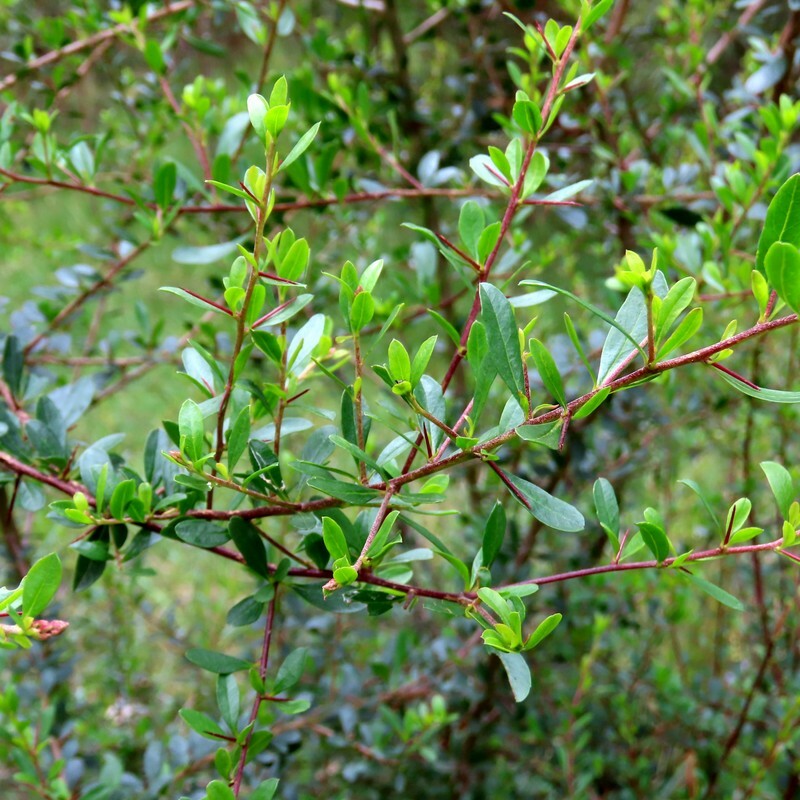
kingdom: Plantae
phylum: Tracheophyta
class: Magnoliopsida
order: Apiales
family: Pittosporaceae
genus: Bursaria
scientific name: Bursaria spinosa
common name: Australian blackthorn
